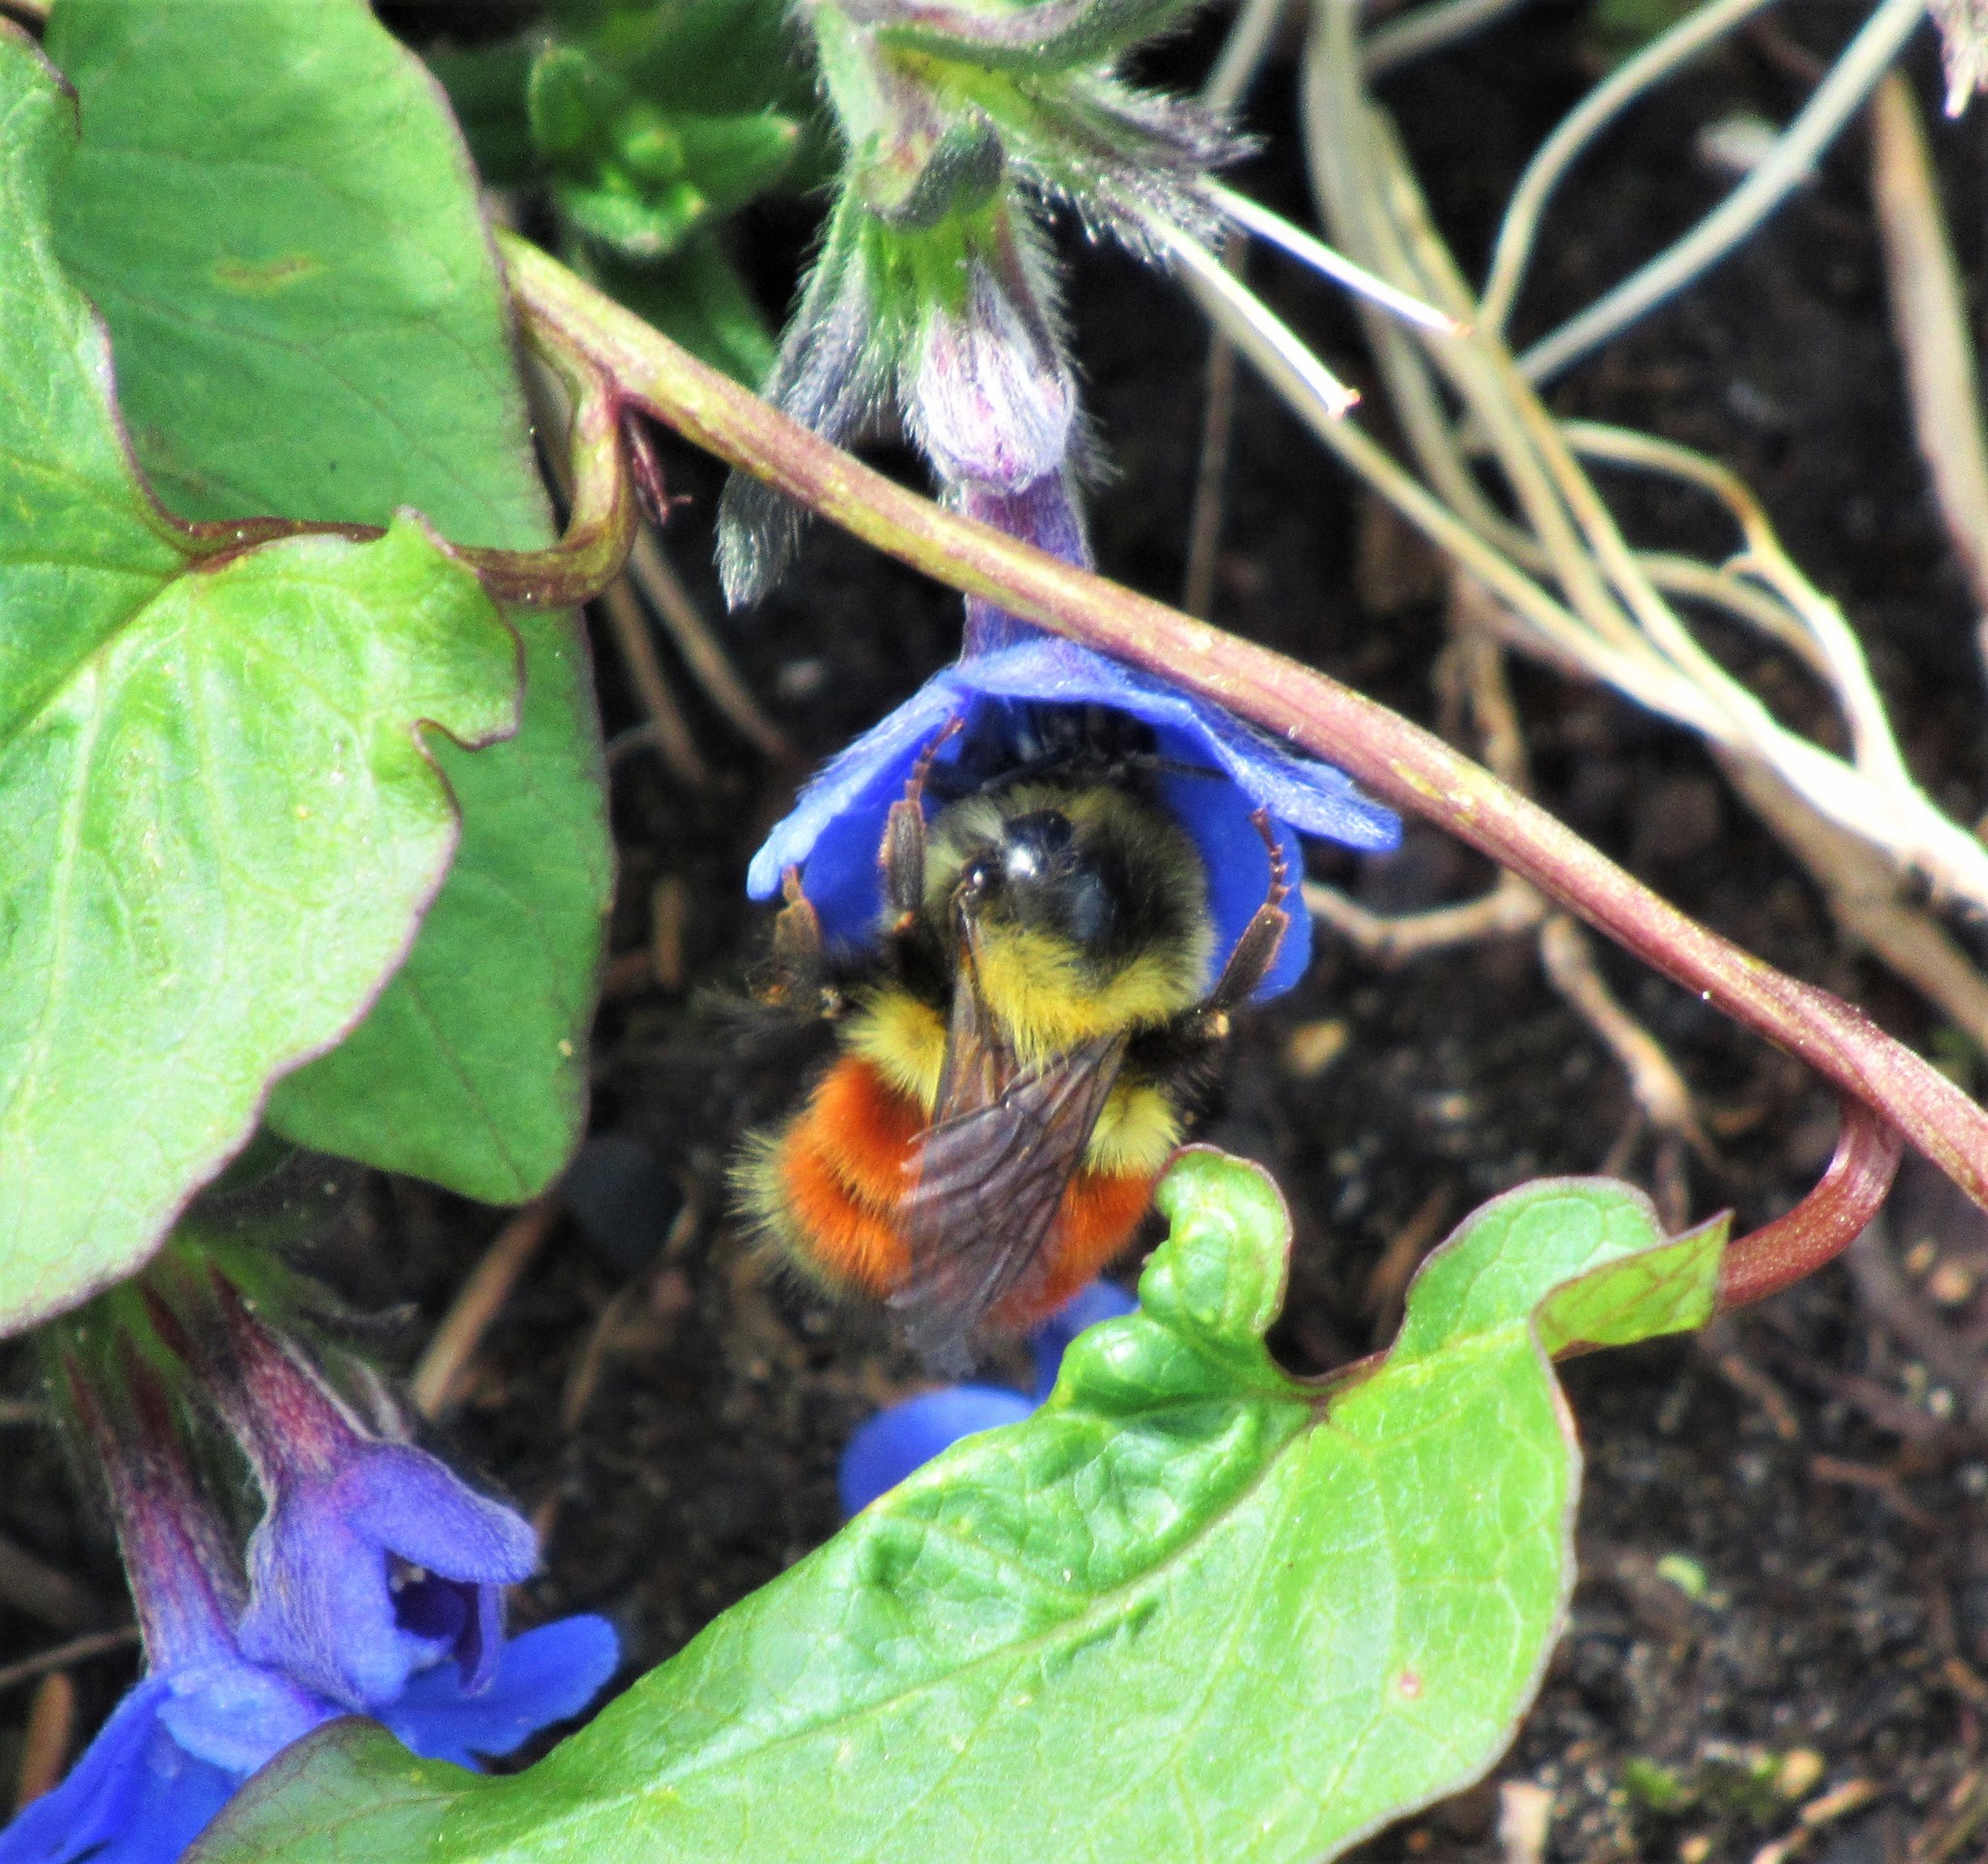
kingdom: Animalia
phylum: Arthropoda
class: Insecta
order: Hymenoptera
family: Apidae
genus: Bombus
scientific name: Bombus melanopygus
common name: Black tail bumble bee
